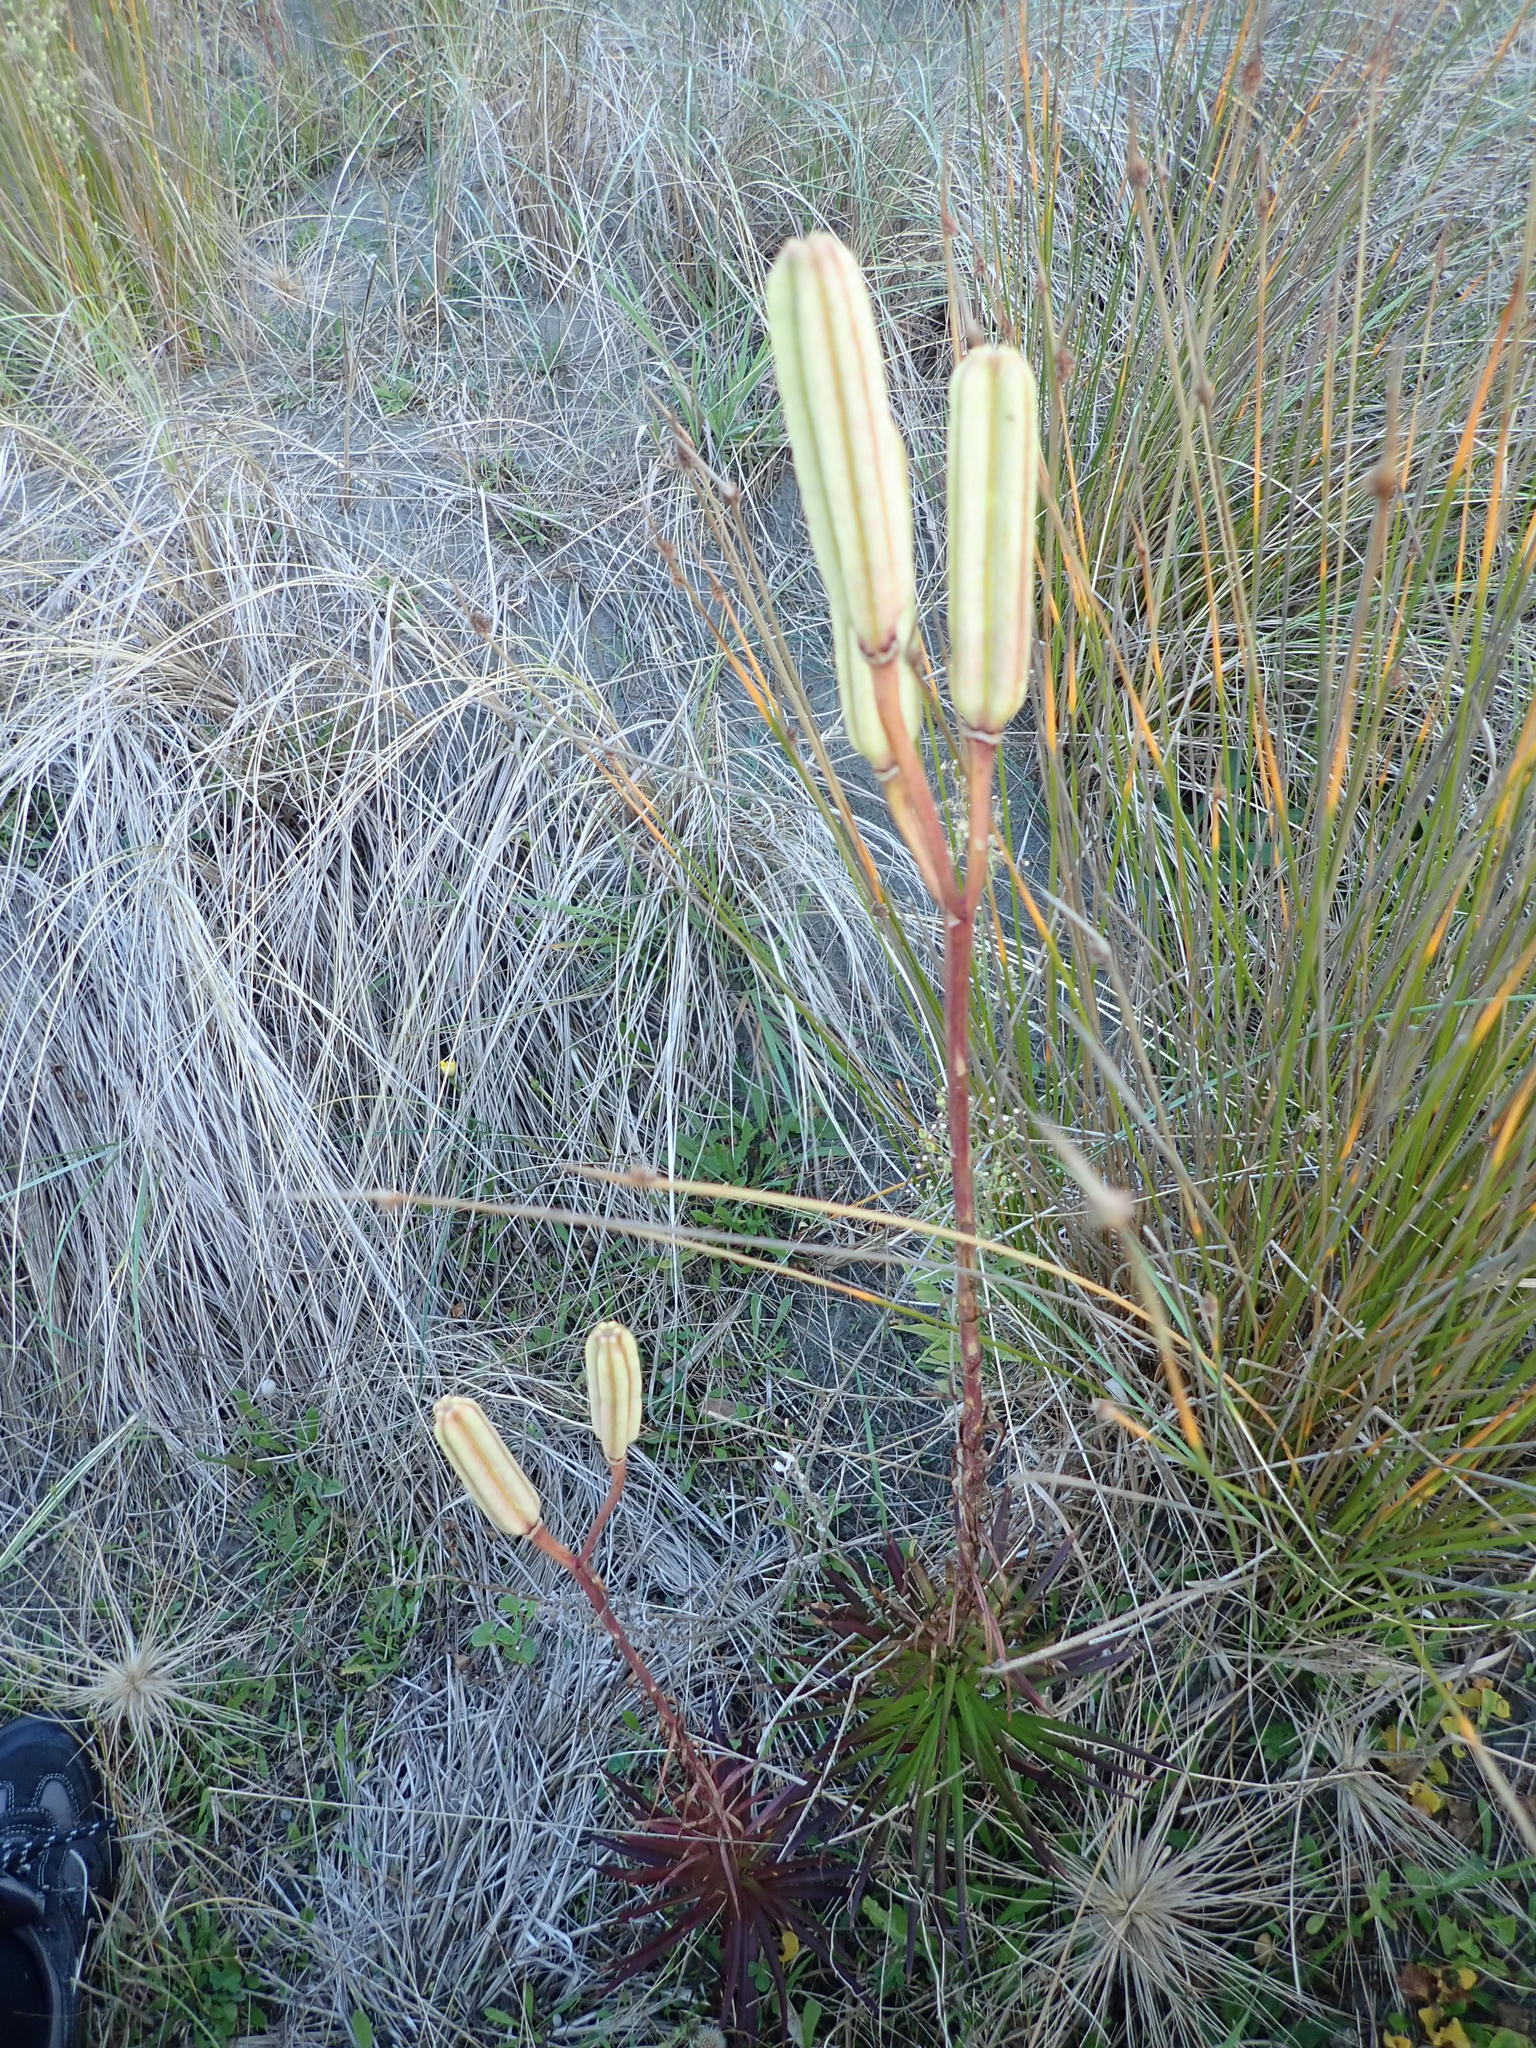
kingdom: Plantae
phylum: Tracheophyta
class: Liliopsida
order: Liliales
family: Liliaceae
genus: Lilium
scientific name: Lilium formosanum
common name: Formosa lily
